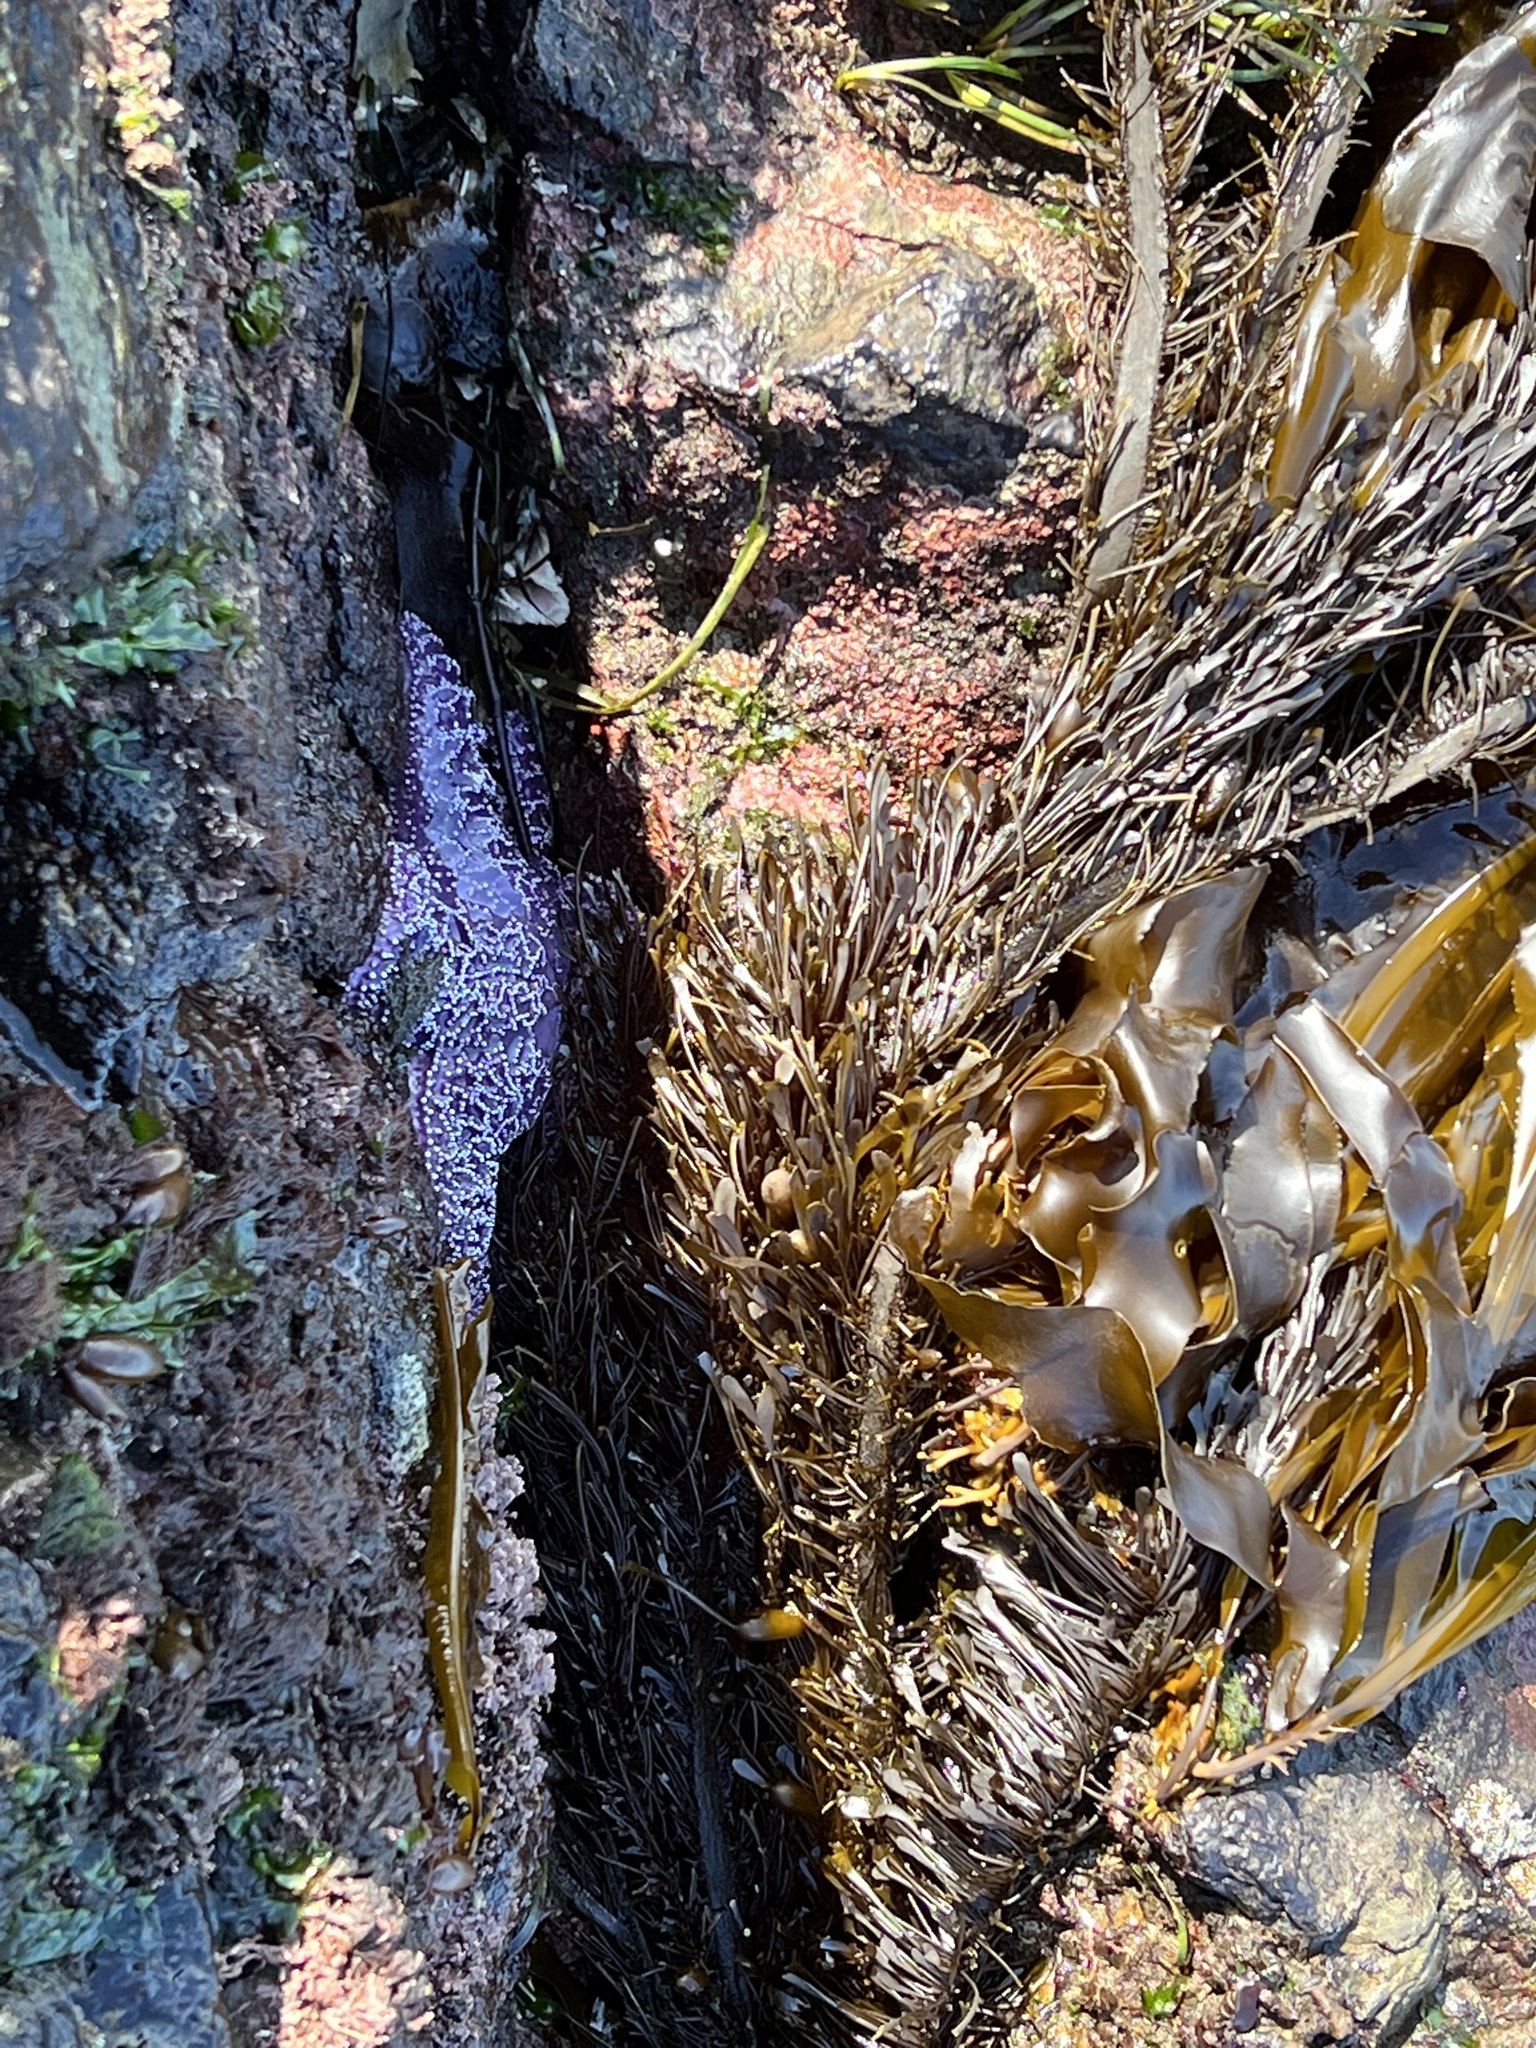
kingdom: Chromista
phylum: Ochrophyta
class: Phaeophyceae
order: Laminariales
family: Lessoniaceae
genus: Egregia
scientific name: Egregia menziesii
